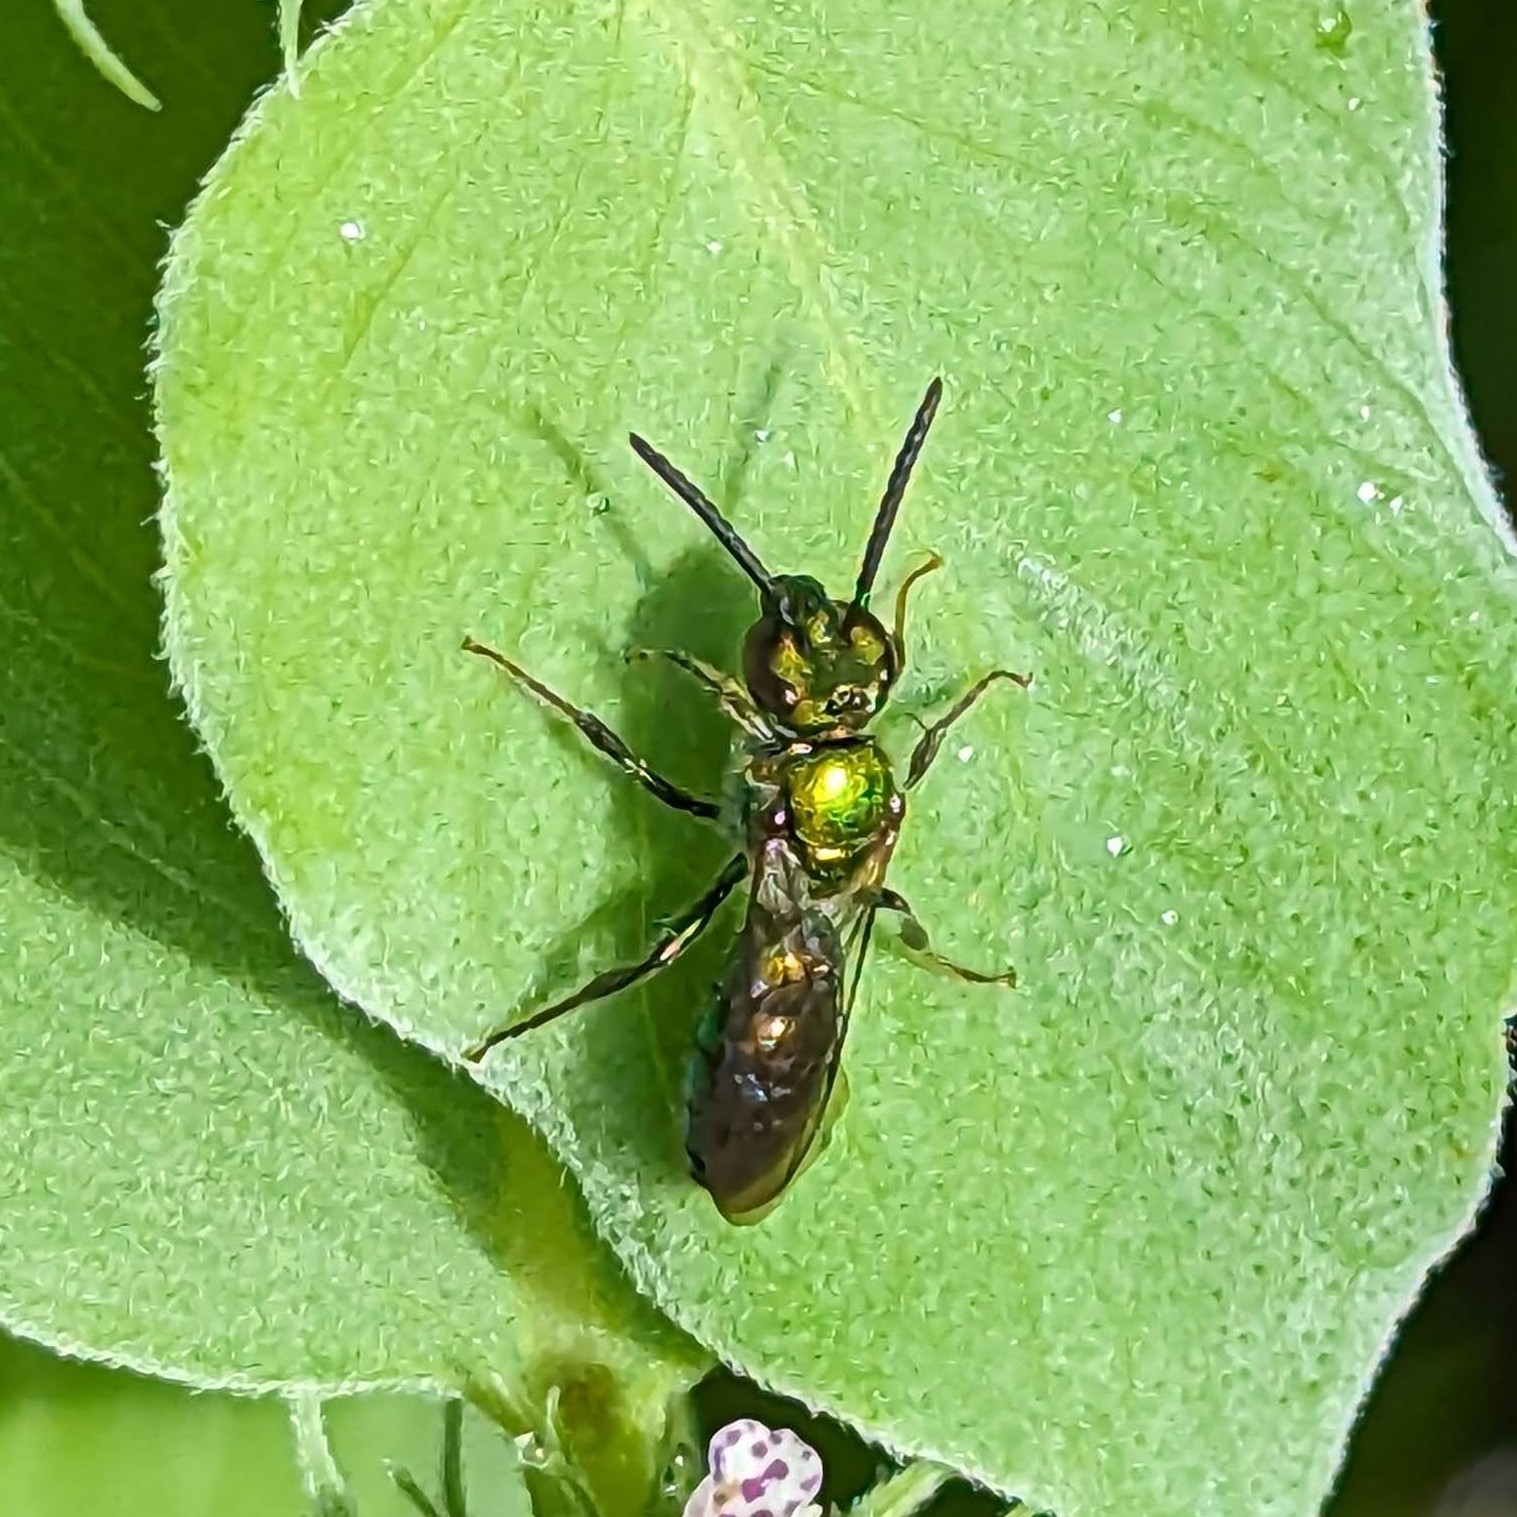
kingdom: Animalia
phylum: Arthropoda
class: Insecta
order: Hymenoptera
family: Halictidae
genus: Augochlora
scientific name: Augochlora pura
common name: Pure green sweat bee
